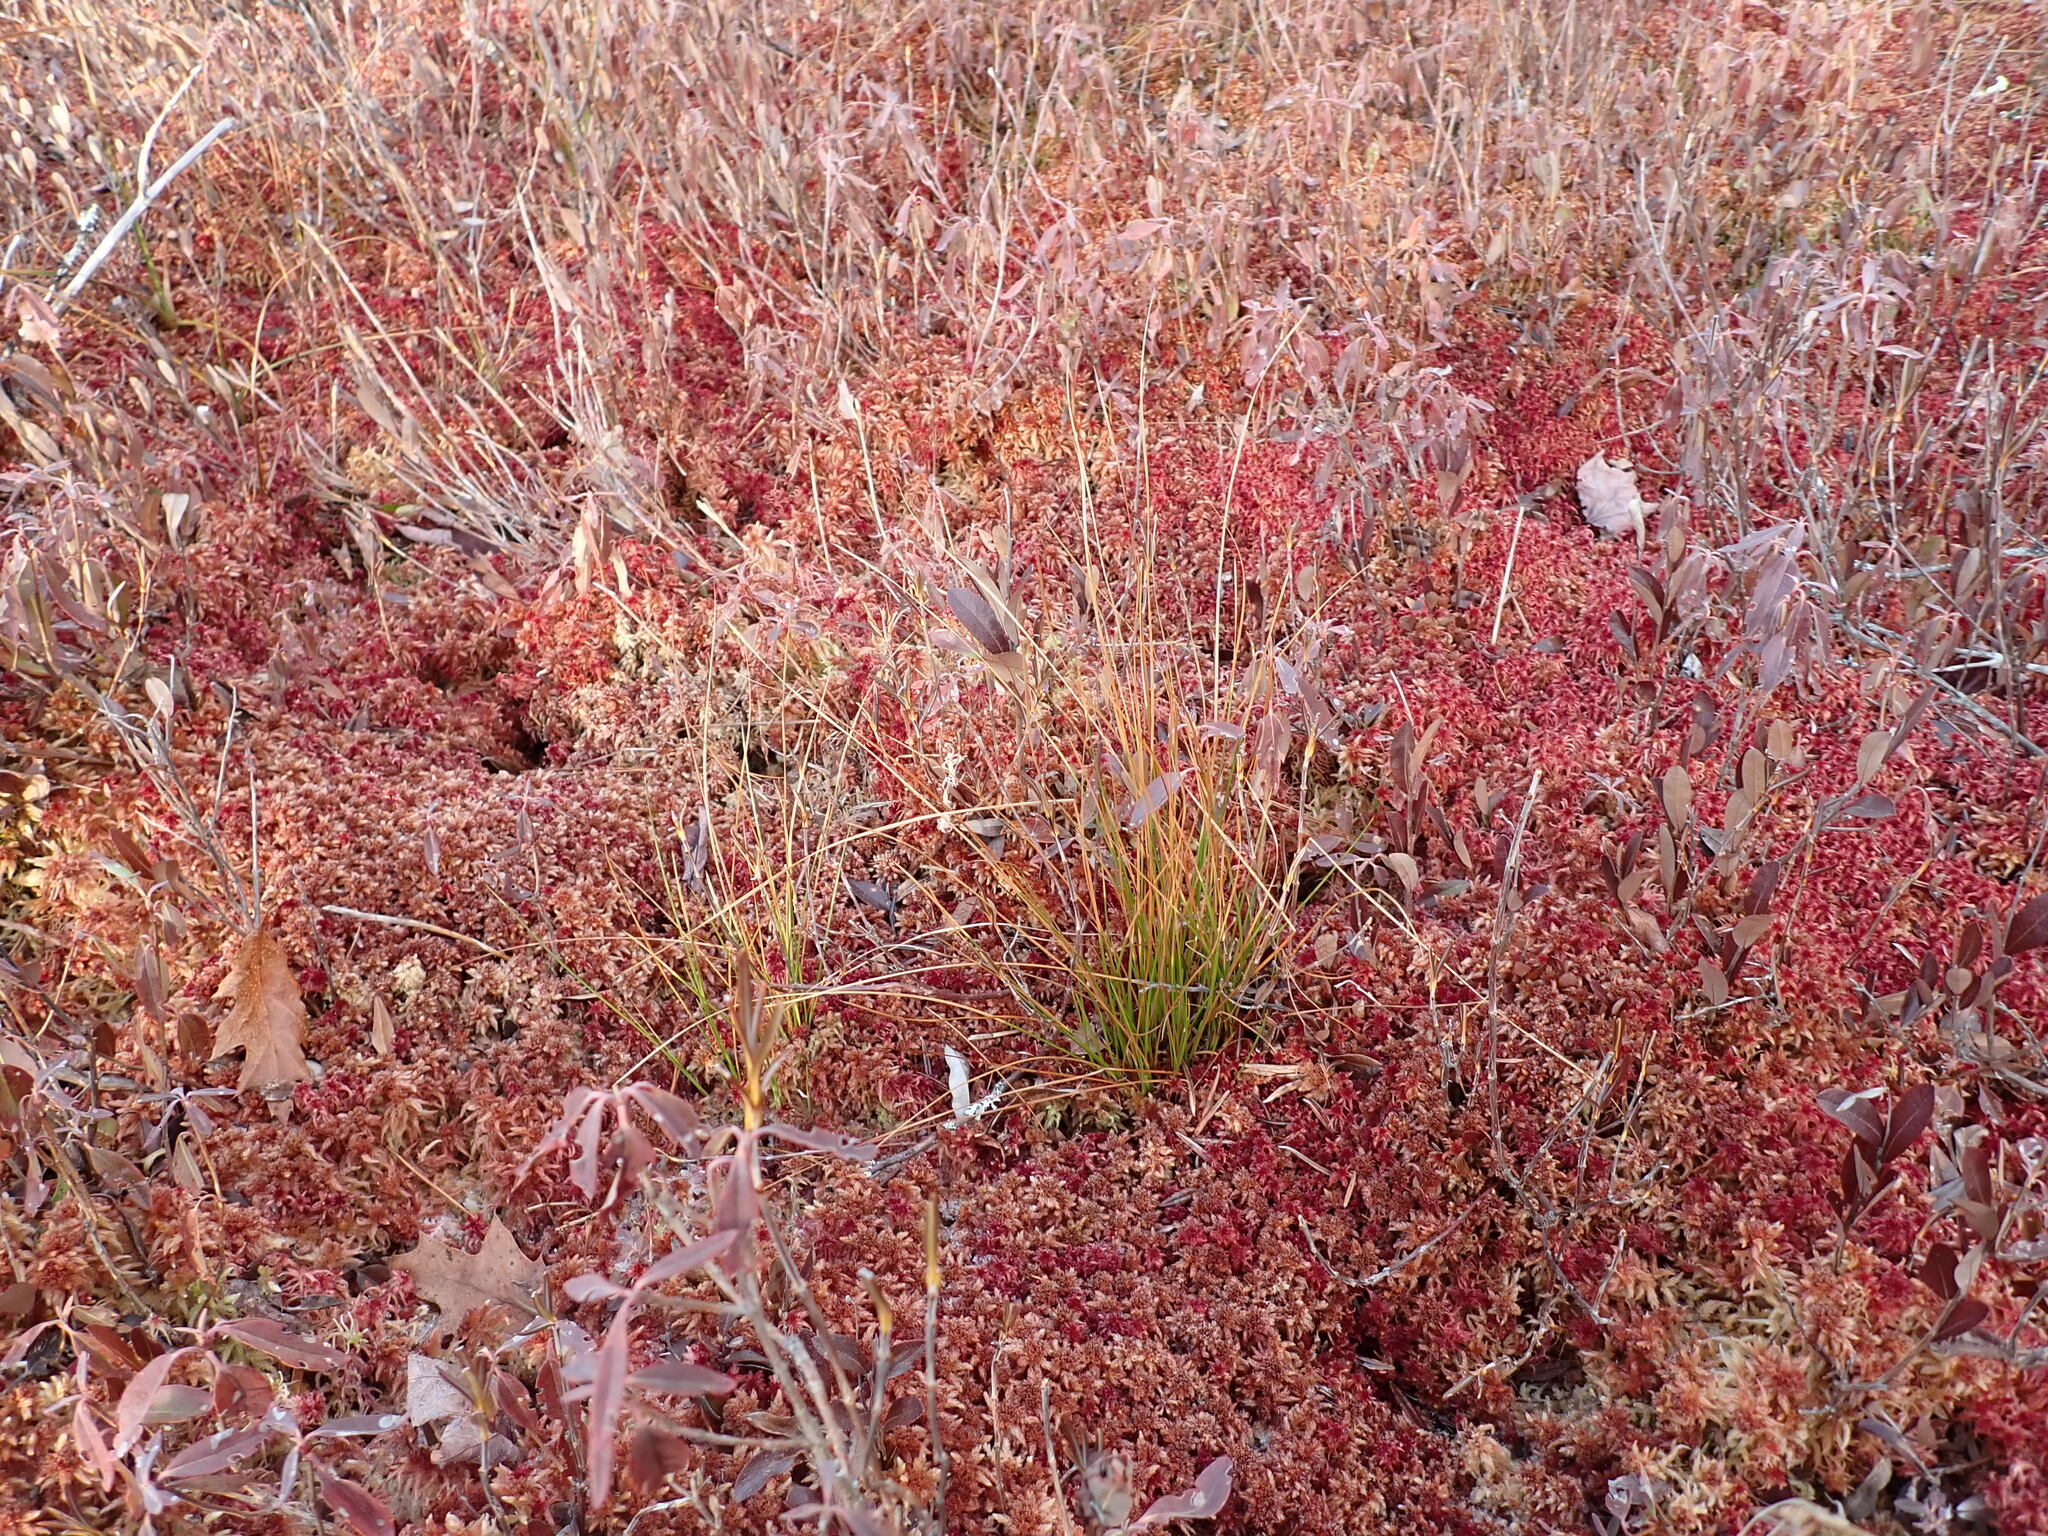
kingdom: Plantae
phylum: Tracheophyta
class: Liliopsida
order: Poales
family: Cyperaceae
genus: Rhynchospora
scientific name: Rhynchospora alba
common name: White beak-sedge
